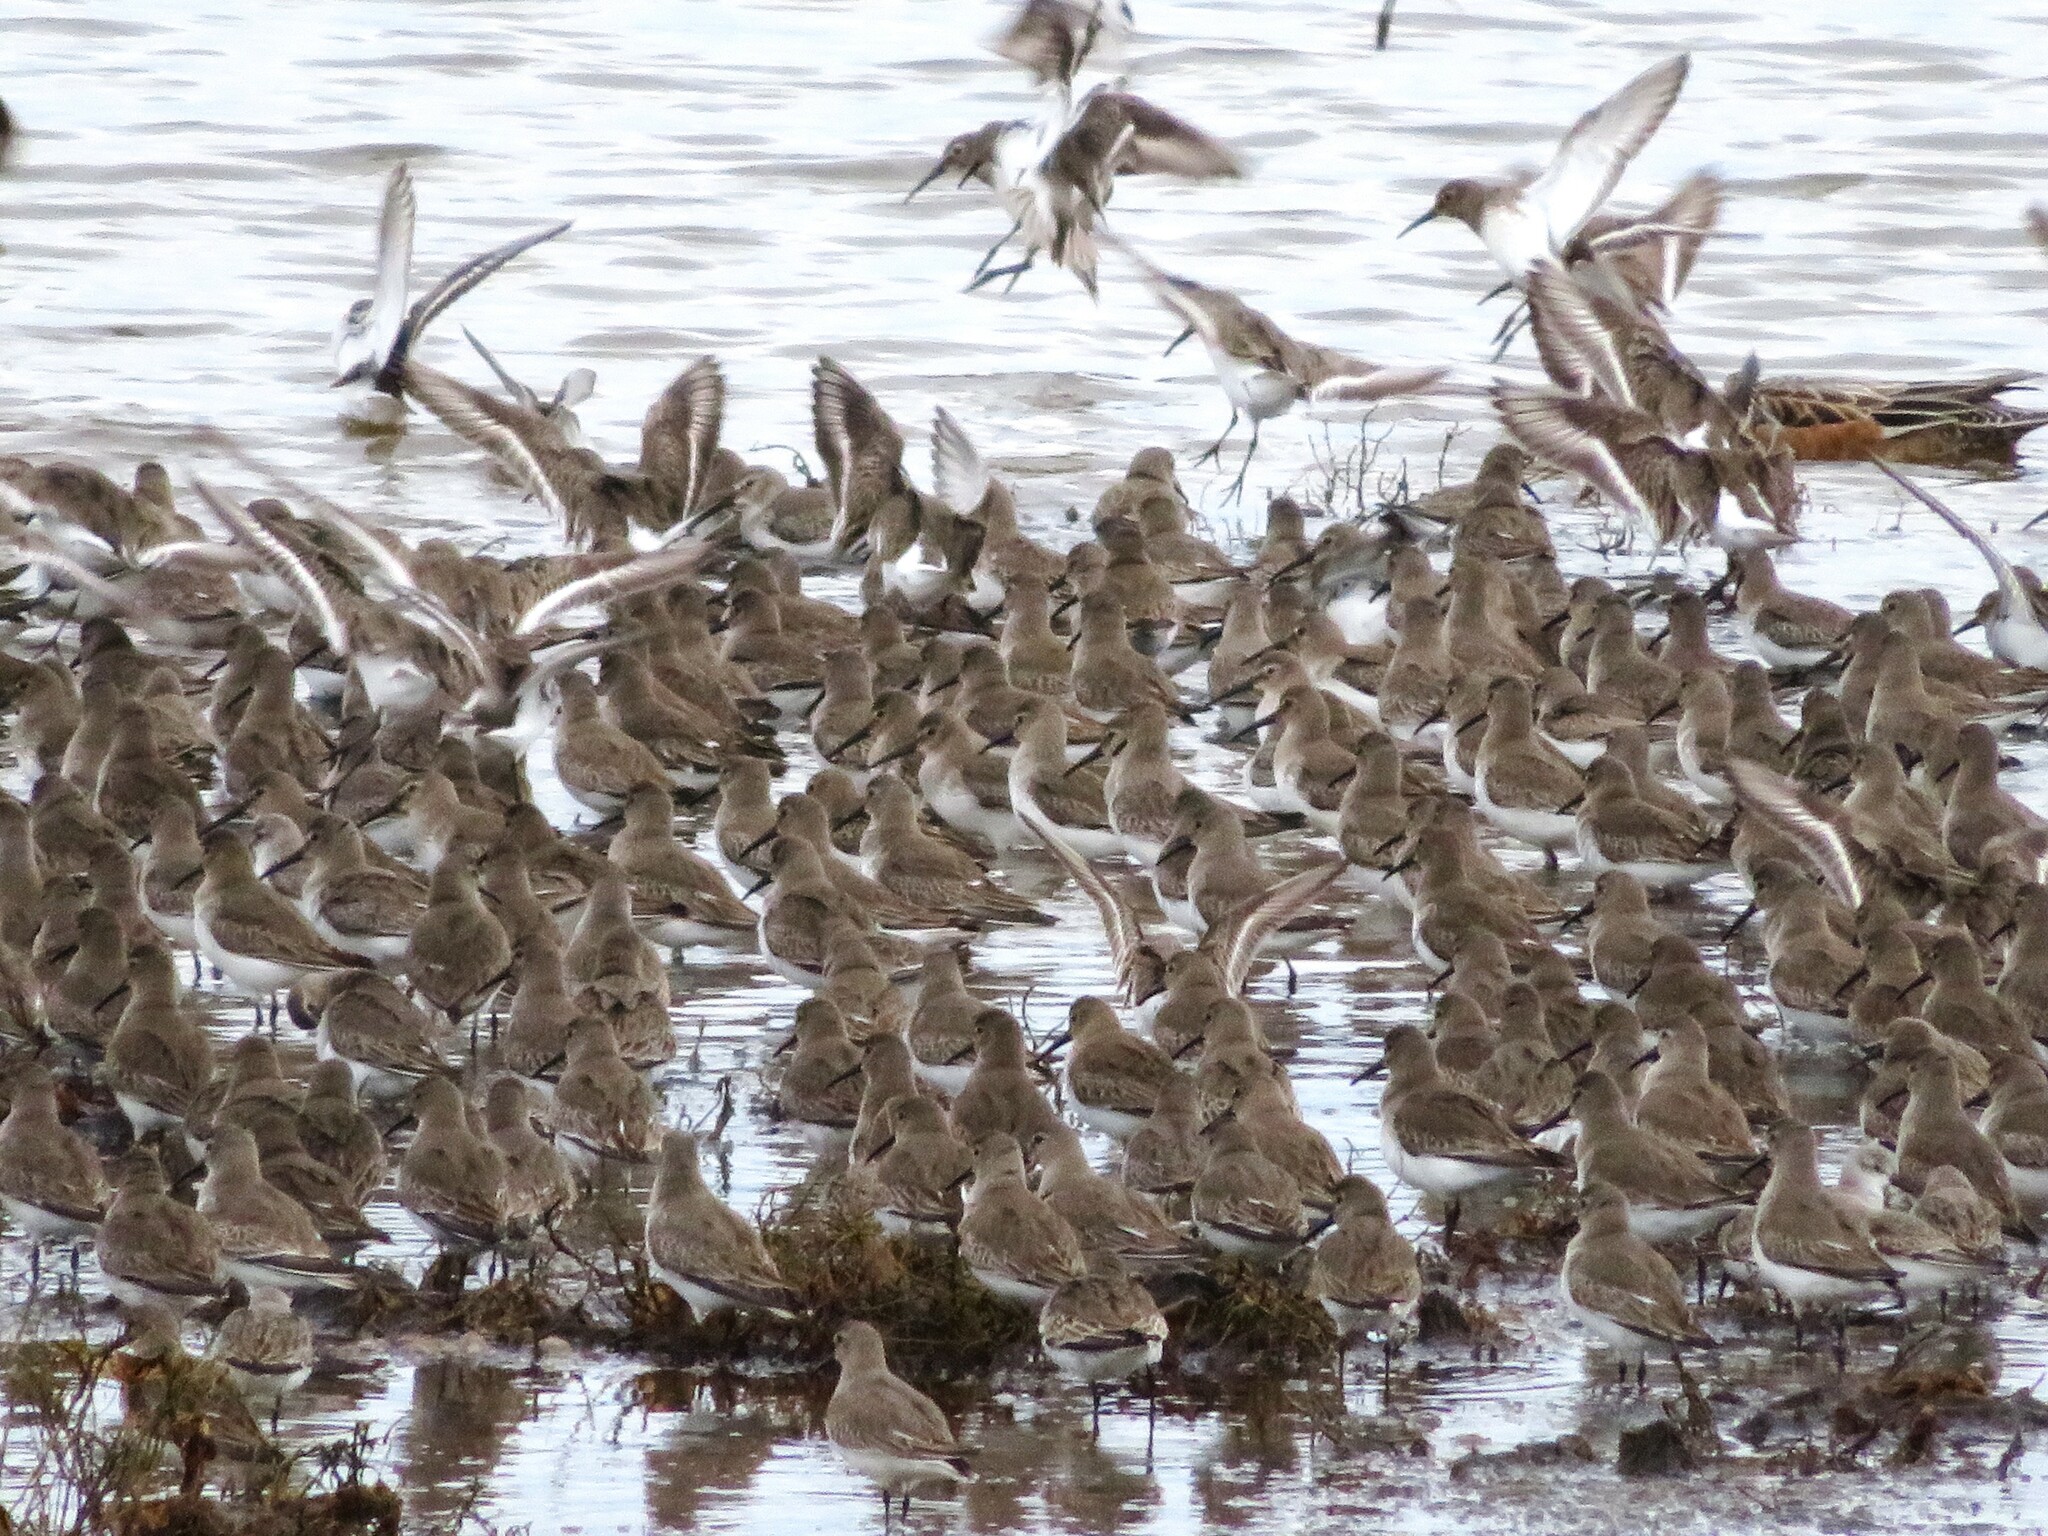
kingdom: Animalia
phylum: Chordata
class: Aves
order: Charadriiformes
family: Scolopacidae
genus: Calidris
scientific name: Calidris alpina
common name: Dunlin
